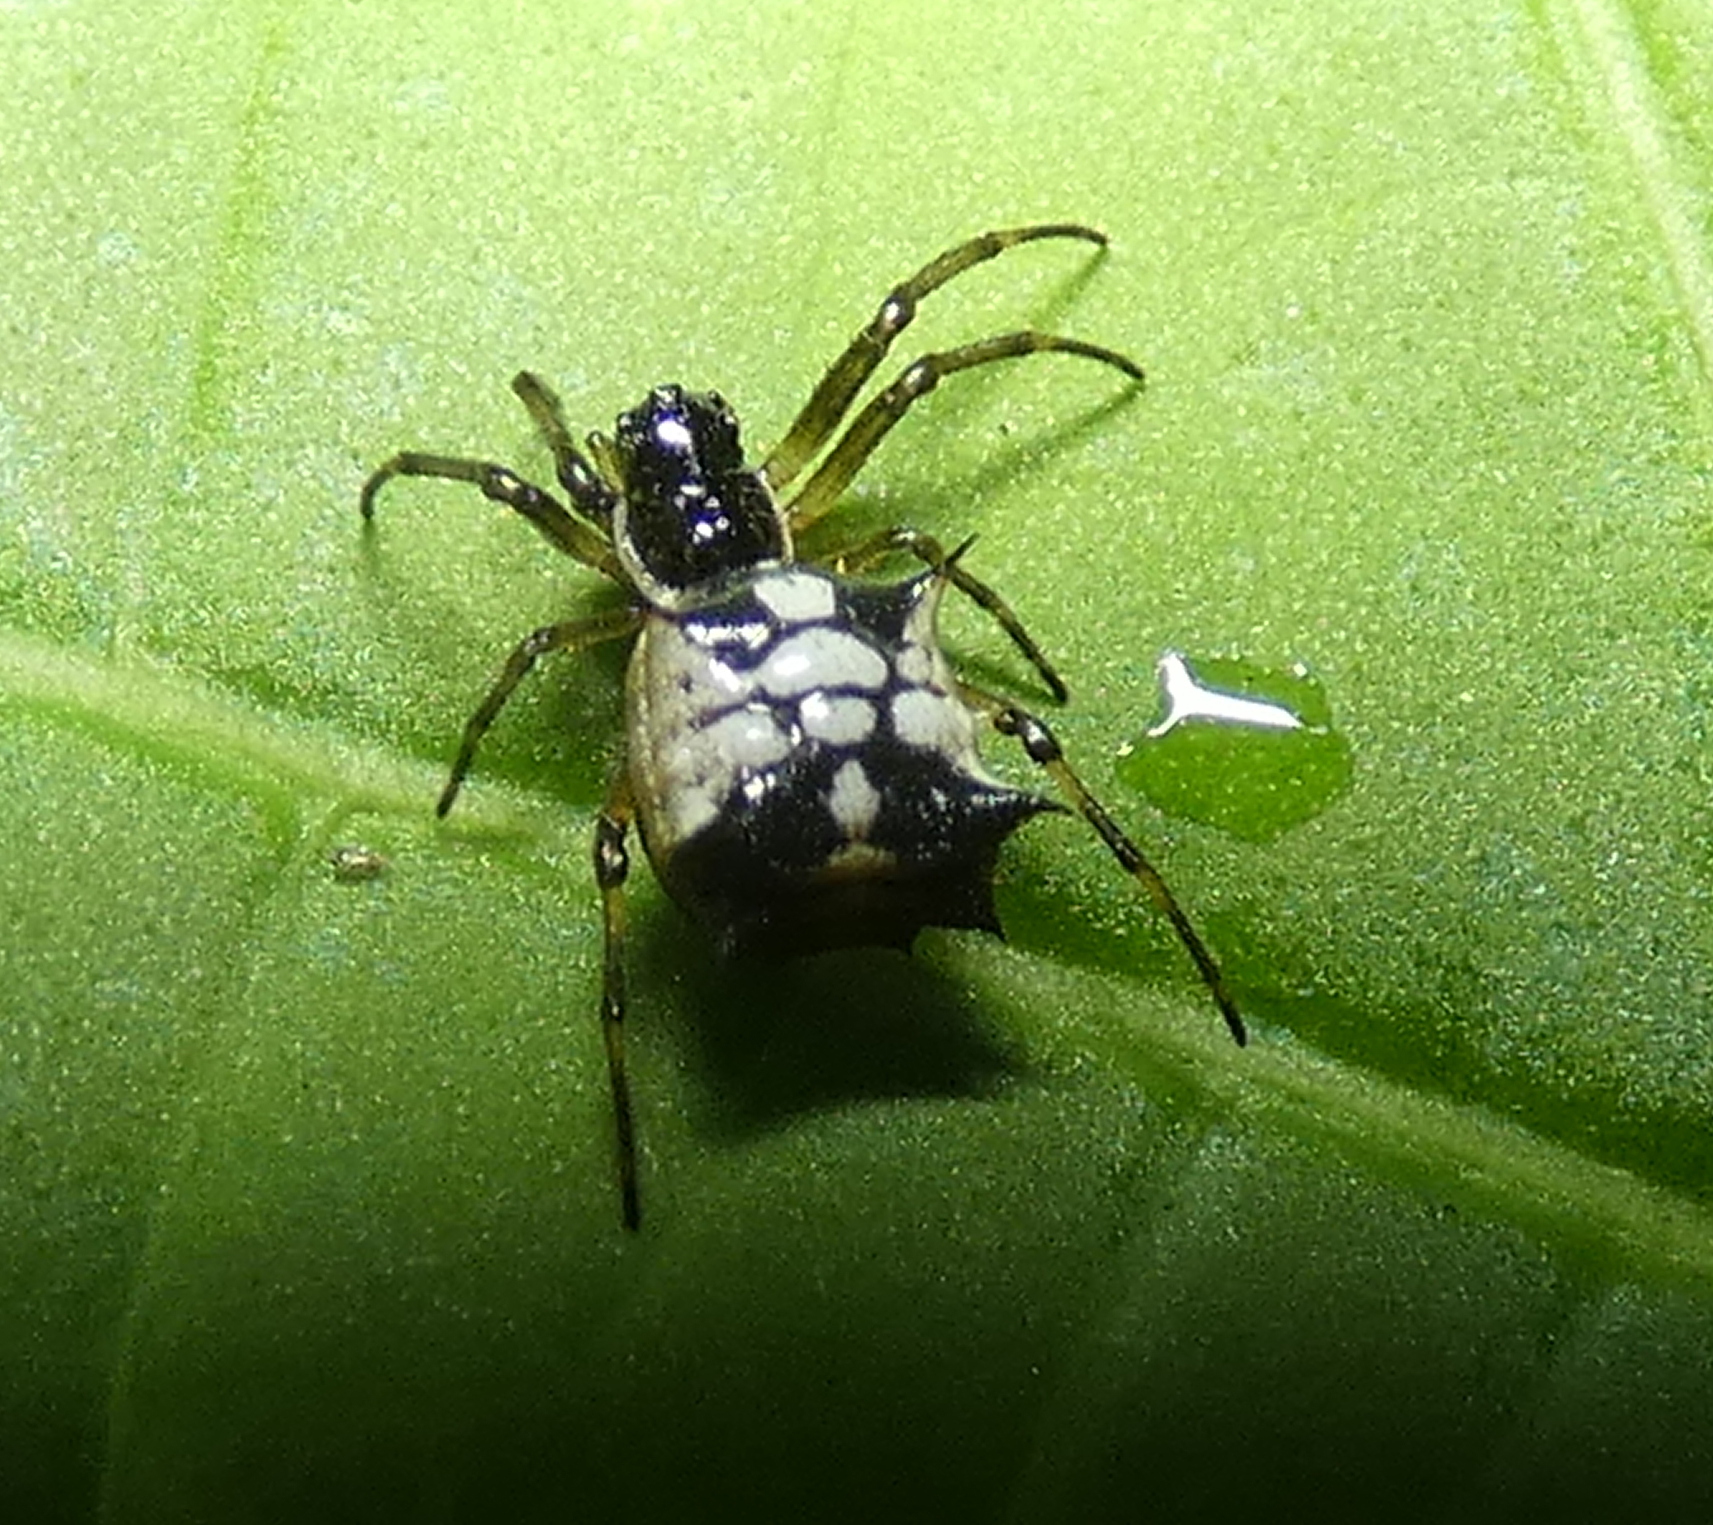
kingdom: Animalia
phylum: Arthropoda
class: Arachnida
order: Araneae
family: Araneidae
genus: Micrathena
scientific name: Micrathena picta
